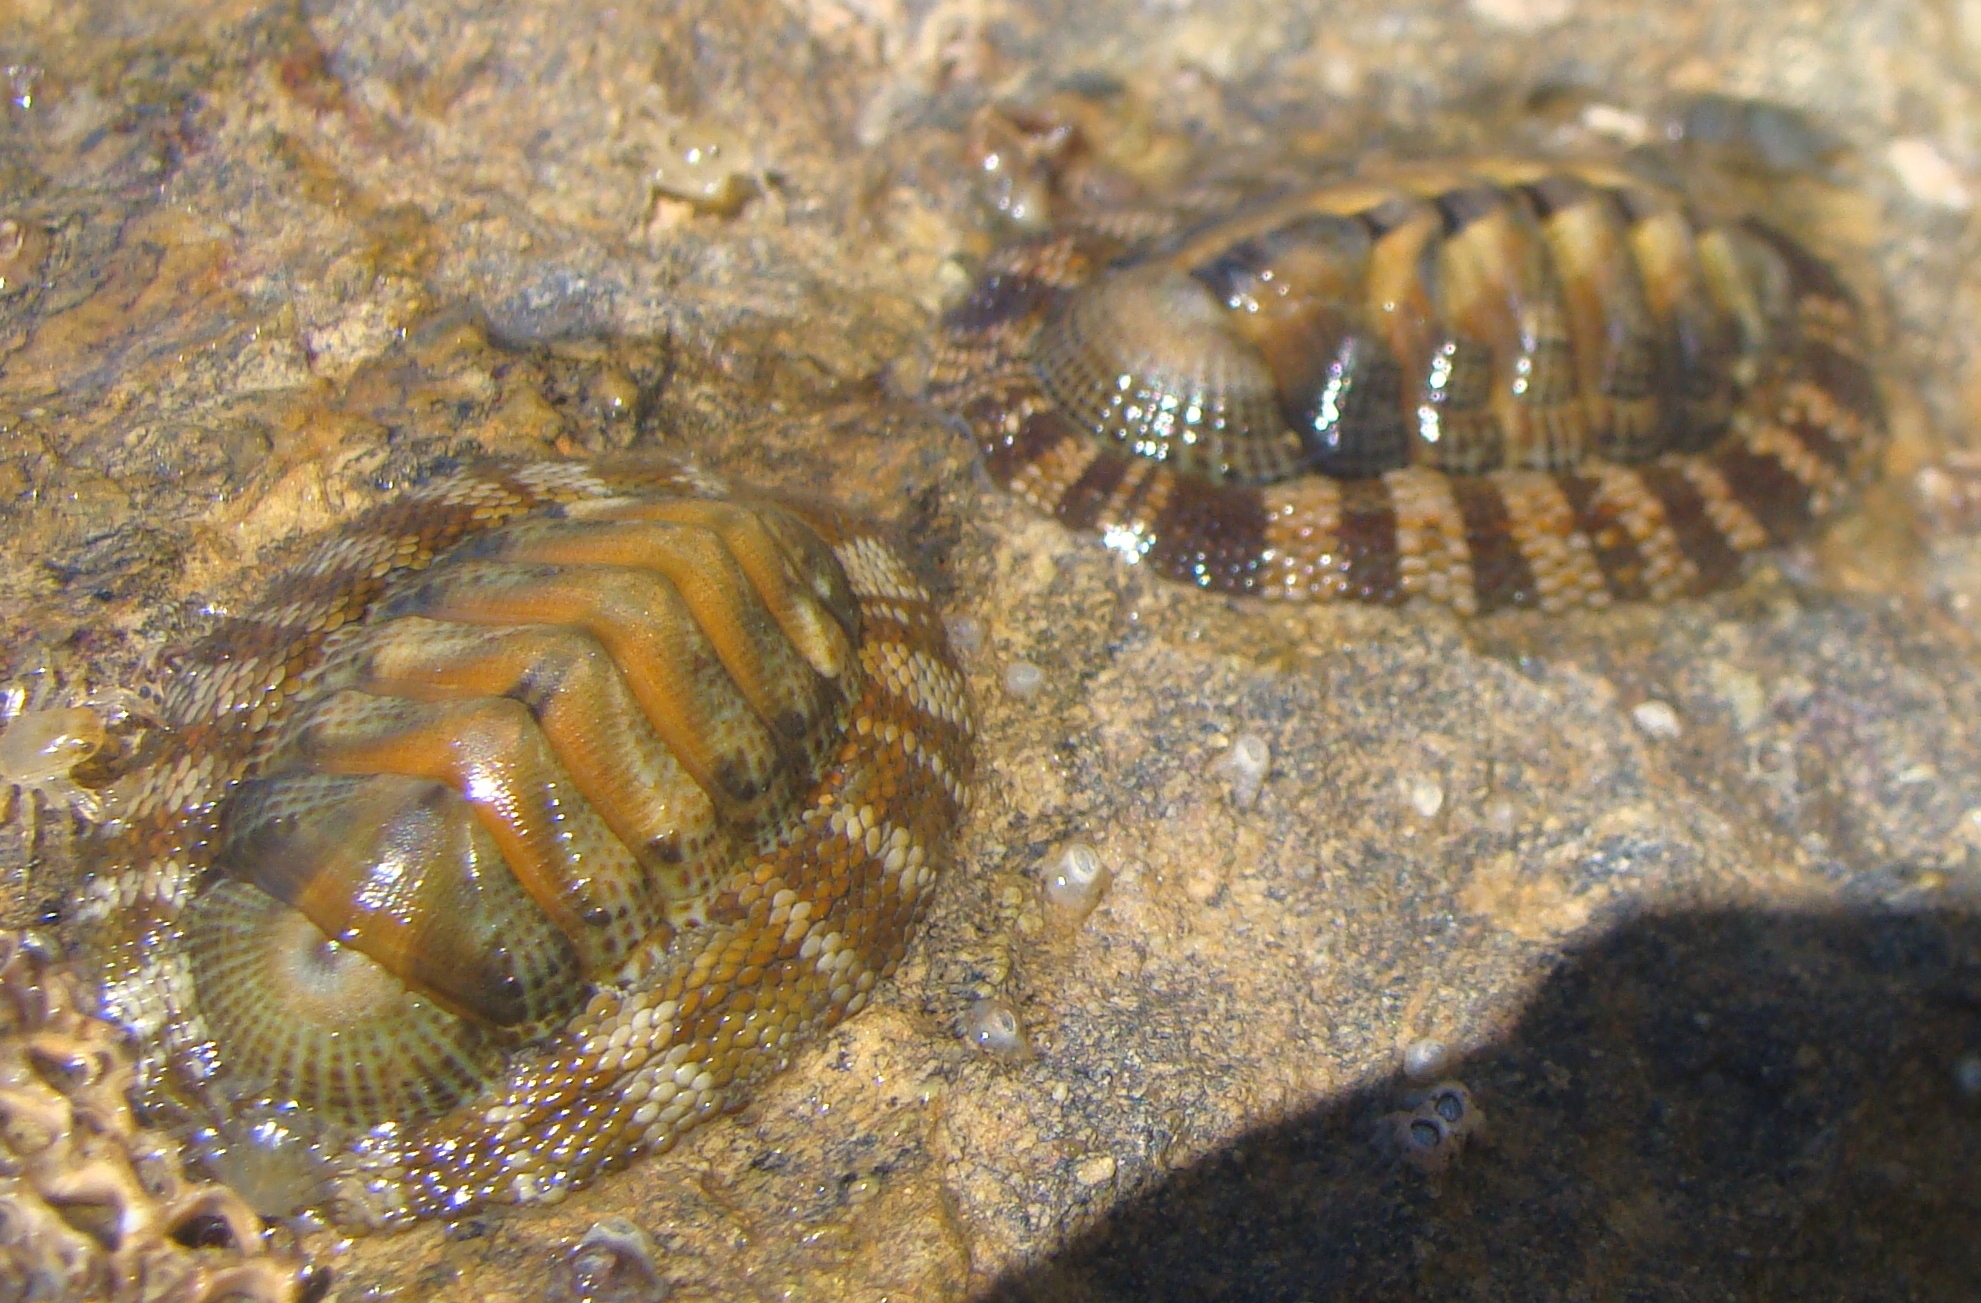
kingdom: Animalia
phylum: Mollusca
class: Polyplacophora
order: Chitonida
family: Chitonidae
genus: Sypharochiton
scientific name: Sypharochiton pelliserpentis
